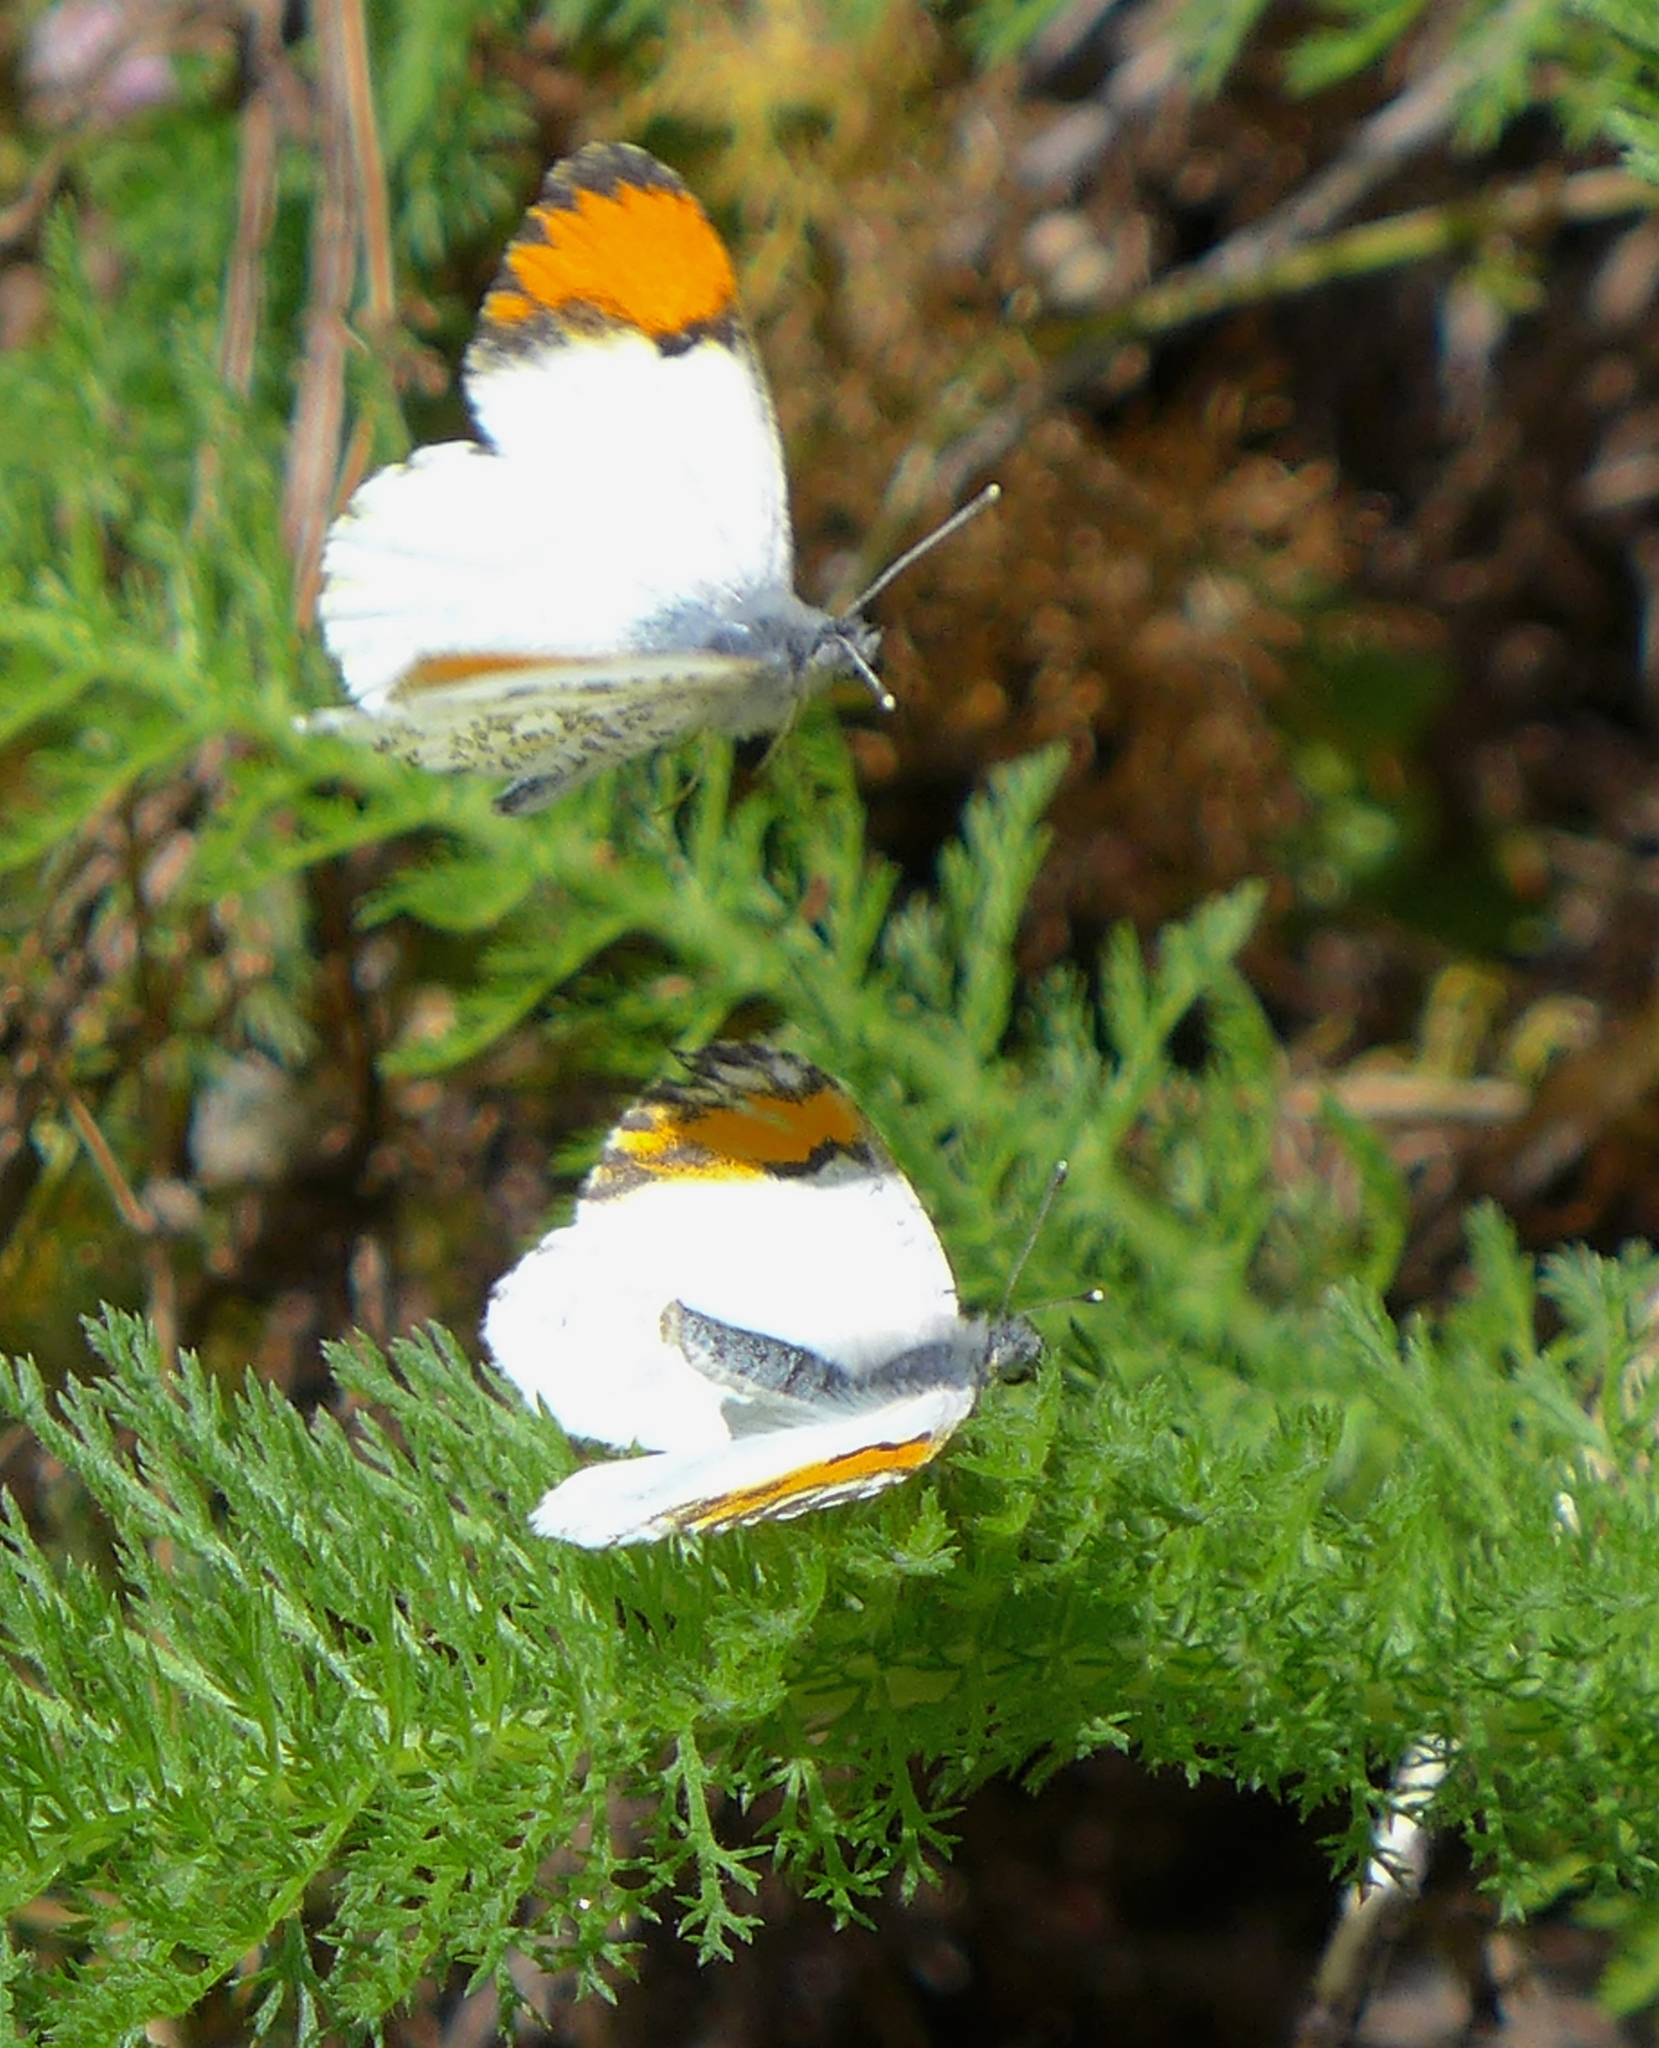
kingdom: Animalia
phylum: Arthropoda
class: Insecta
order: Lepidoptera
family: Pieridae
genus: Anthocharis
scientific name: Anthocharis sara
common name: Sara's orangetip
